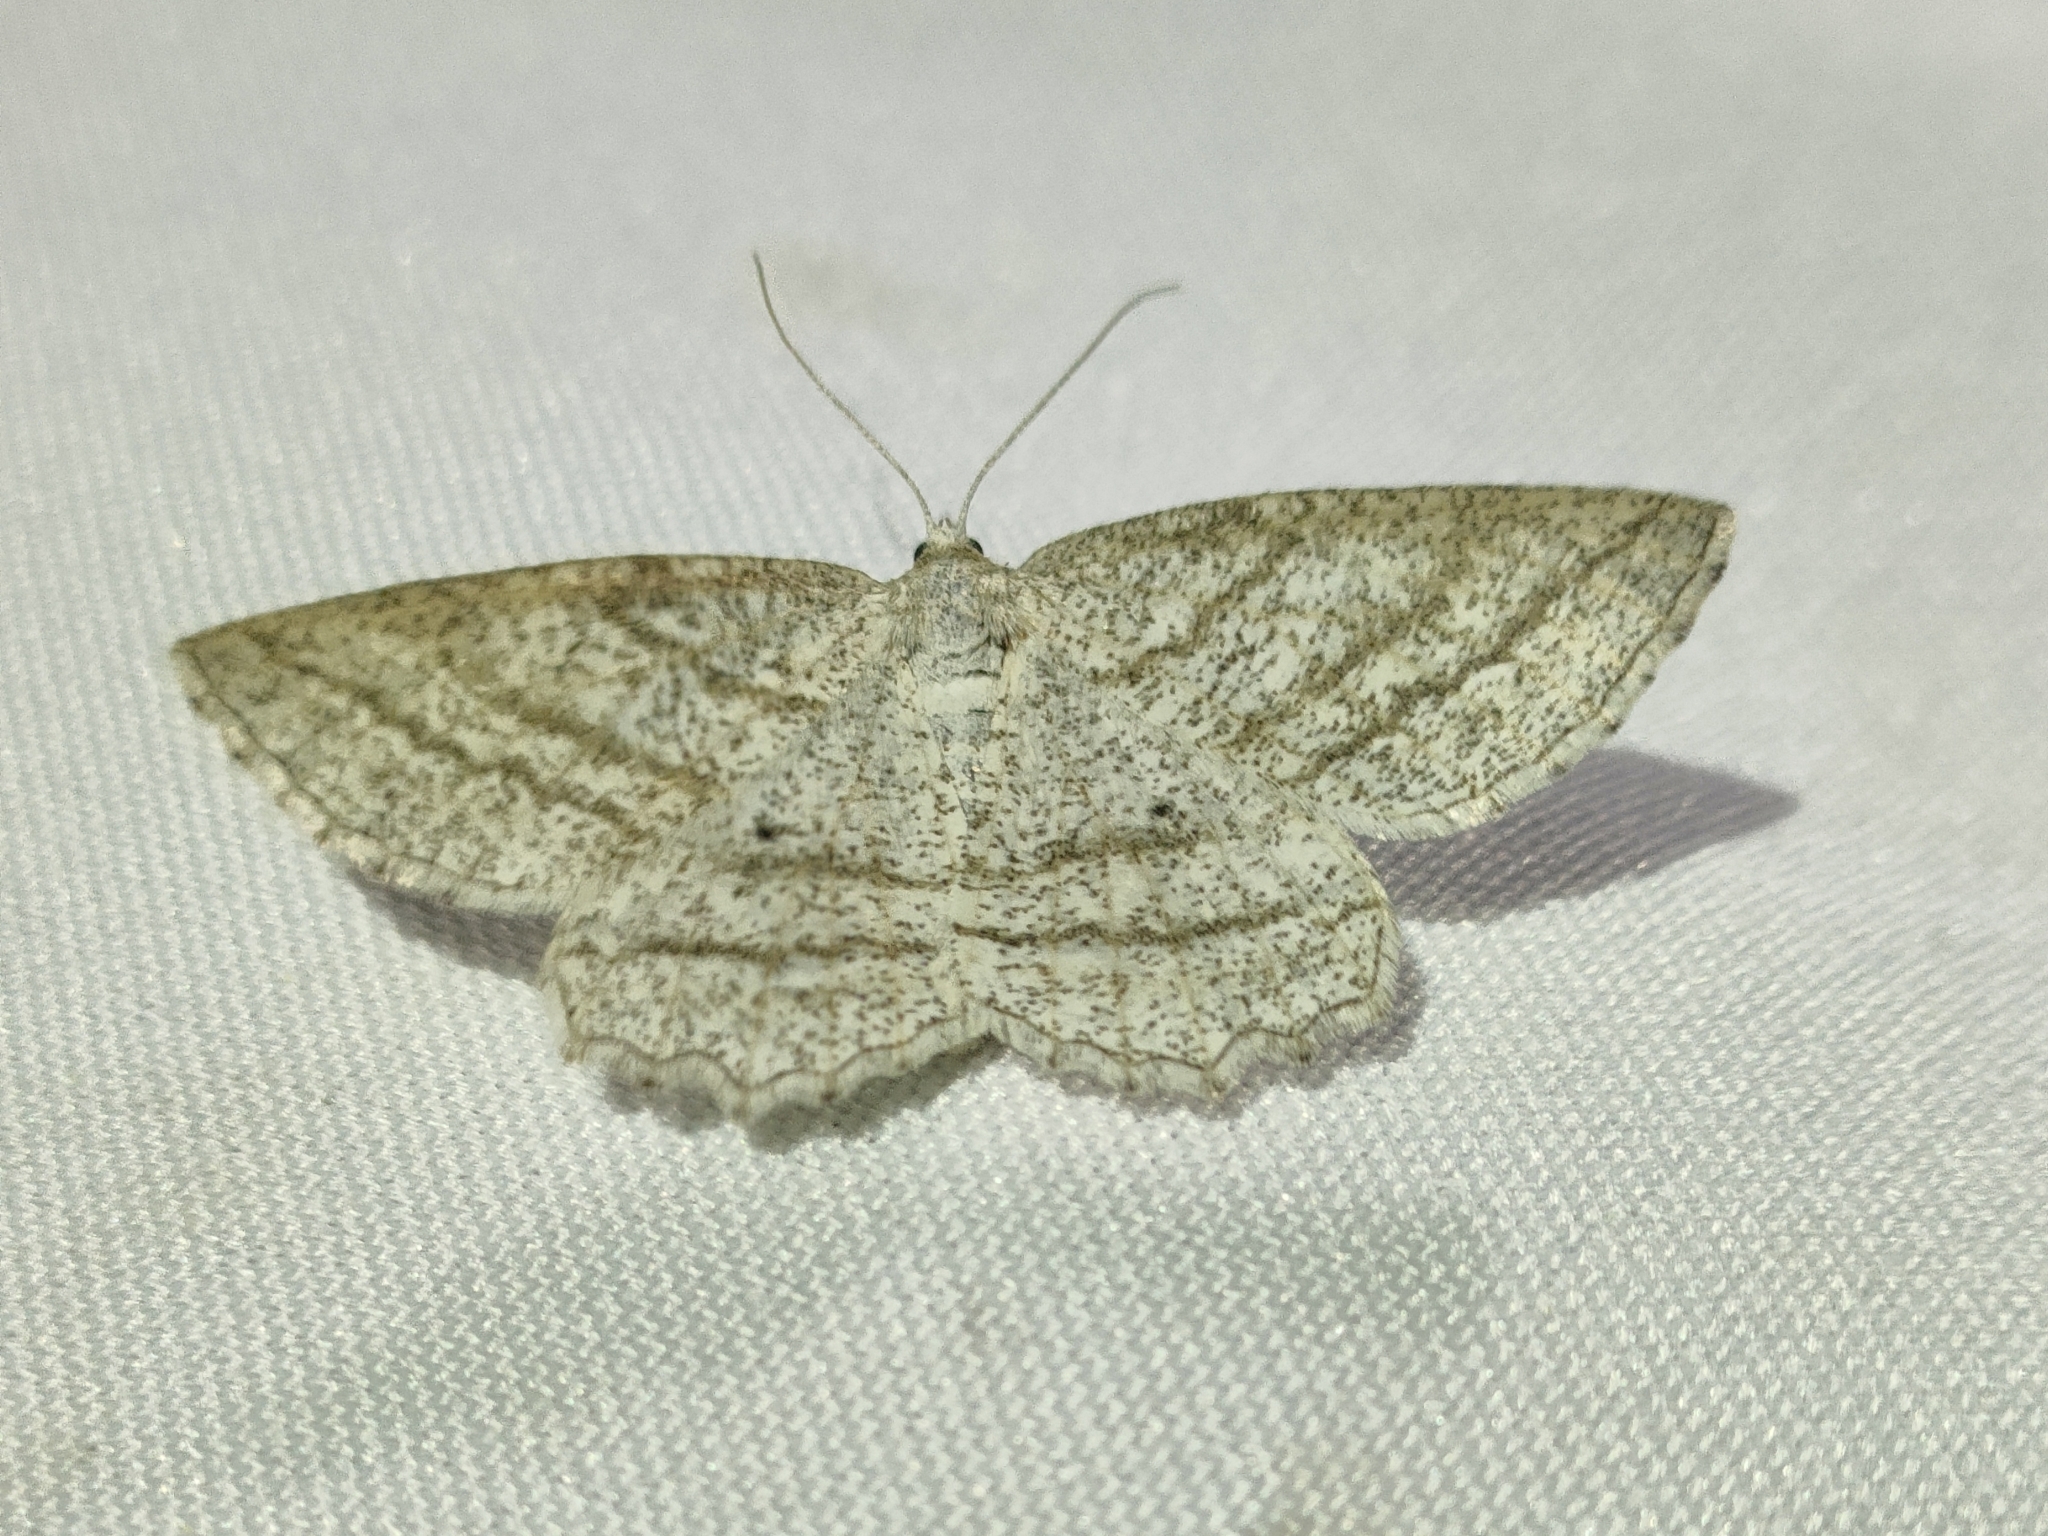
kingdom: Animalia
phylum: Arthropoda
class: Insecta
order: Lepidoptera
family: Geometridae
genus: Perconia
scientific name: Perconia strigillaria
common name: Grass wave
